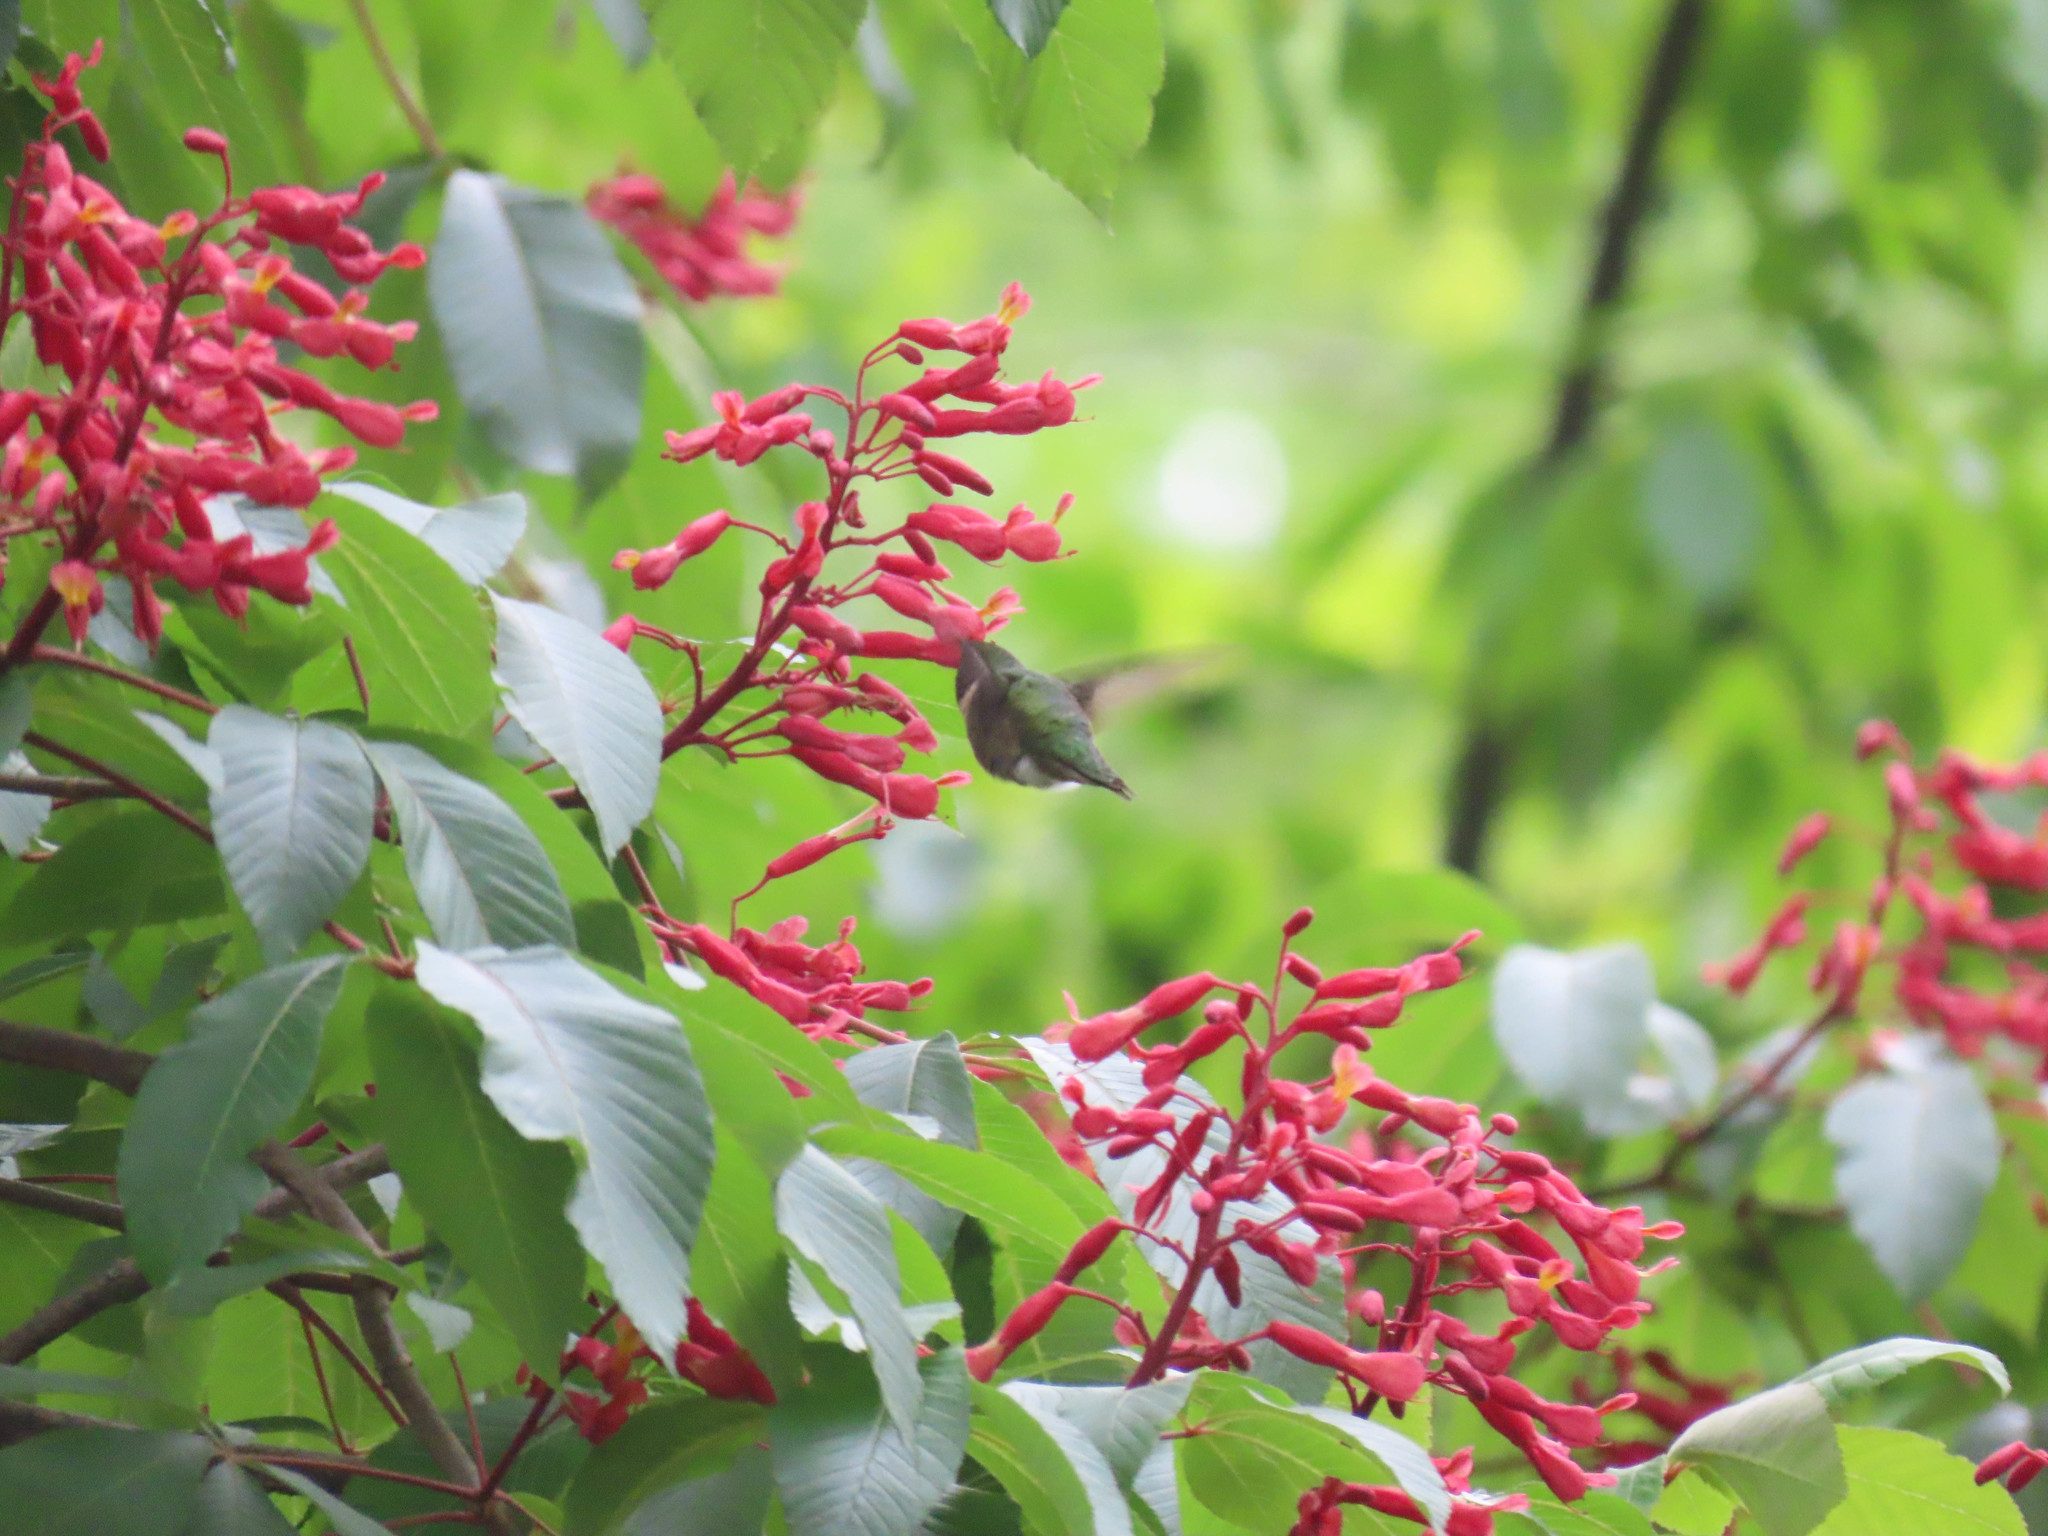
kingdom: Animalia
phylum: Chordata
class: Aves
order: Apodiformes
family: Trochilidae
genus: Archilochus
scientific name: Archilochus colubris
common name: Ruby-throated hummingbird
